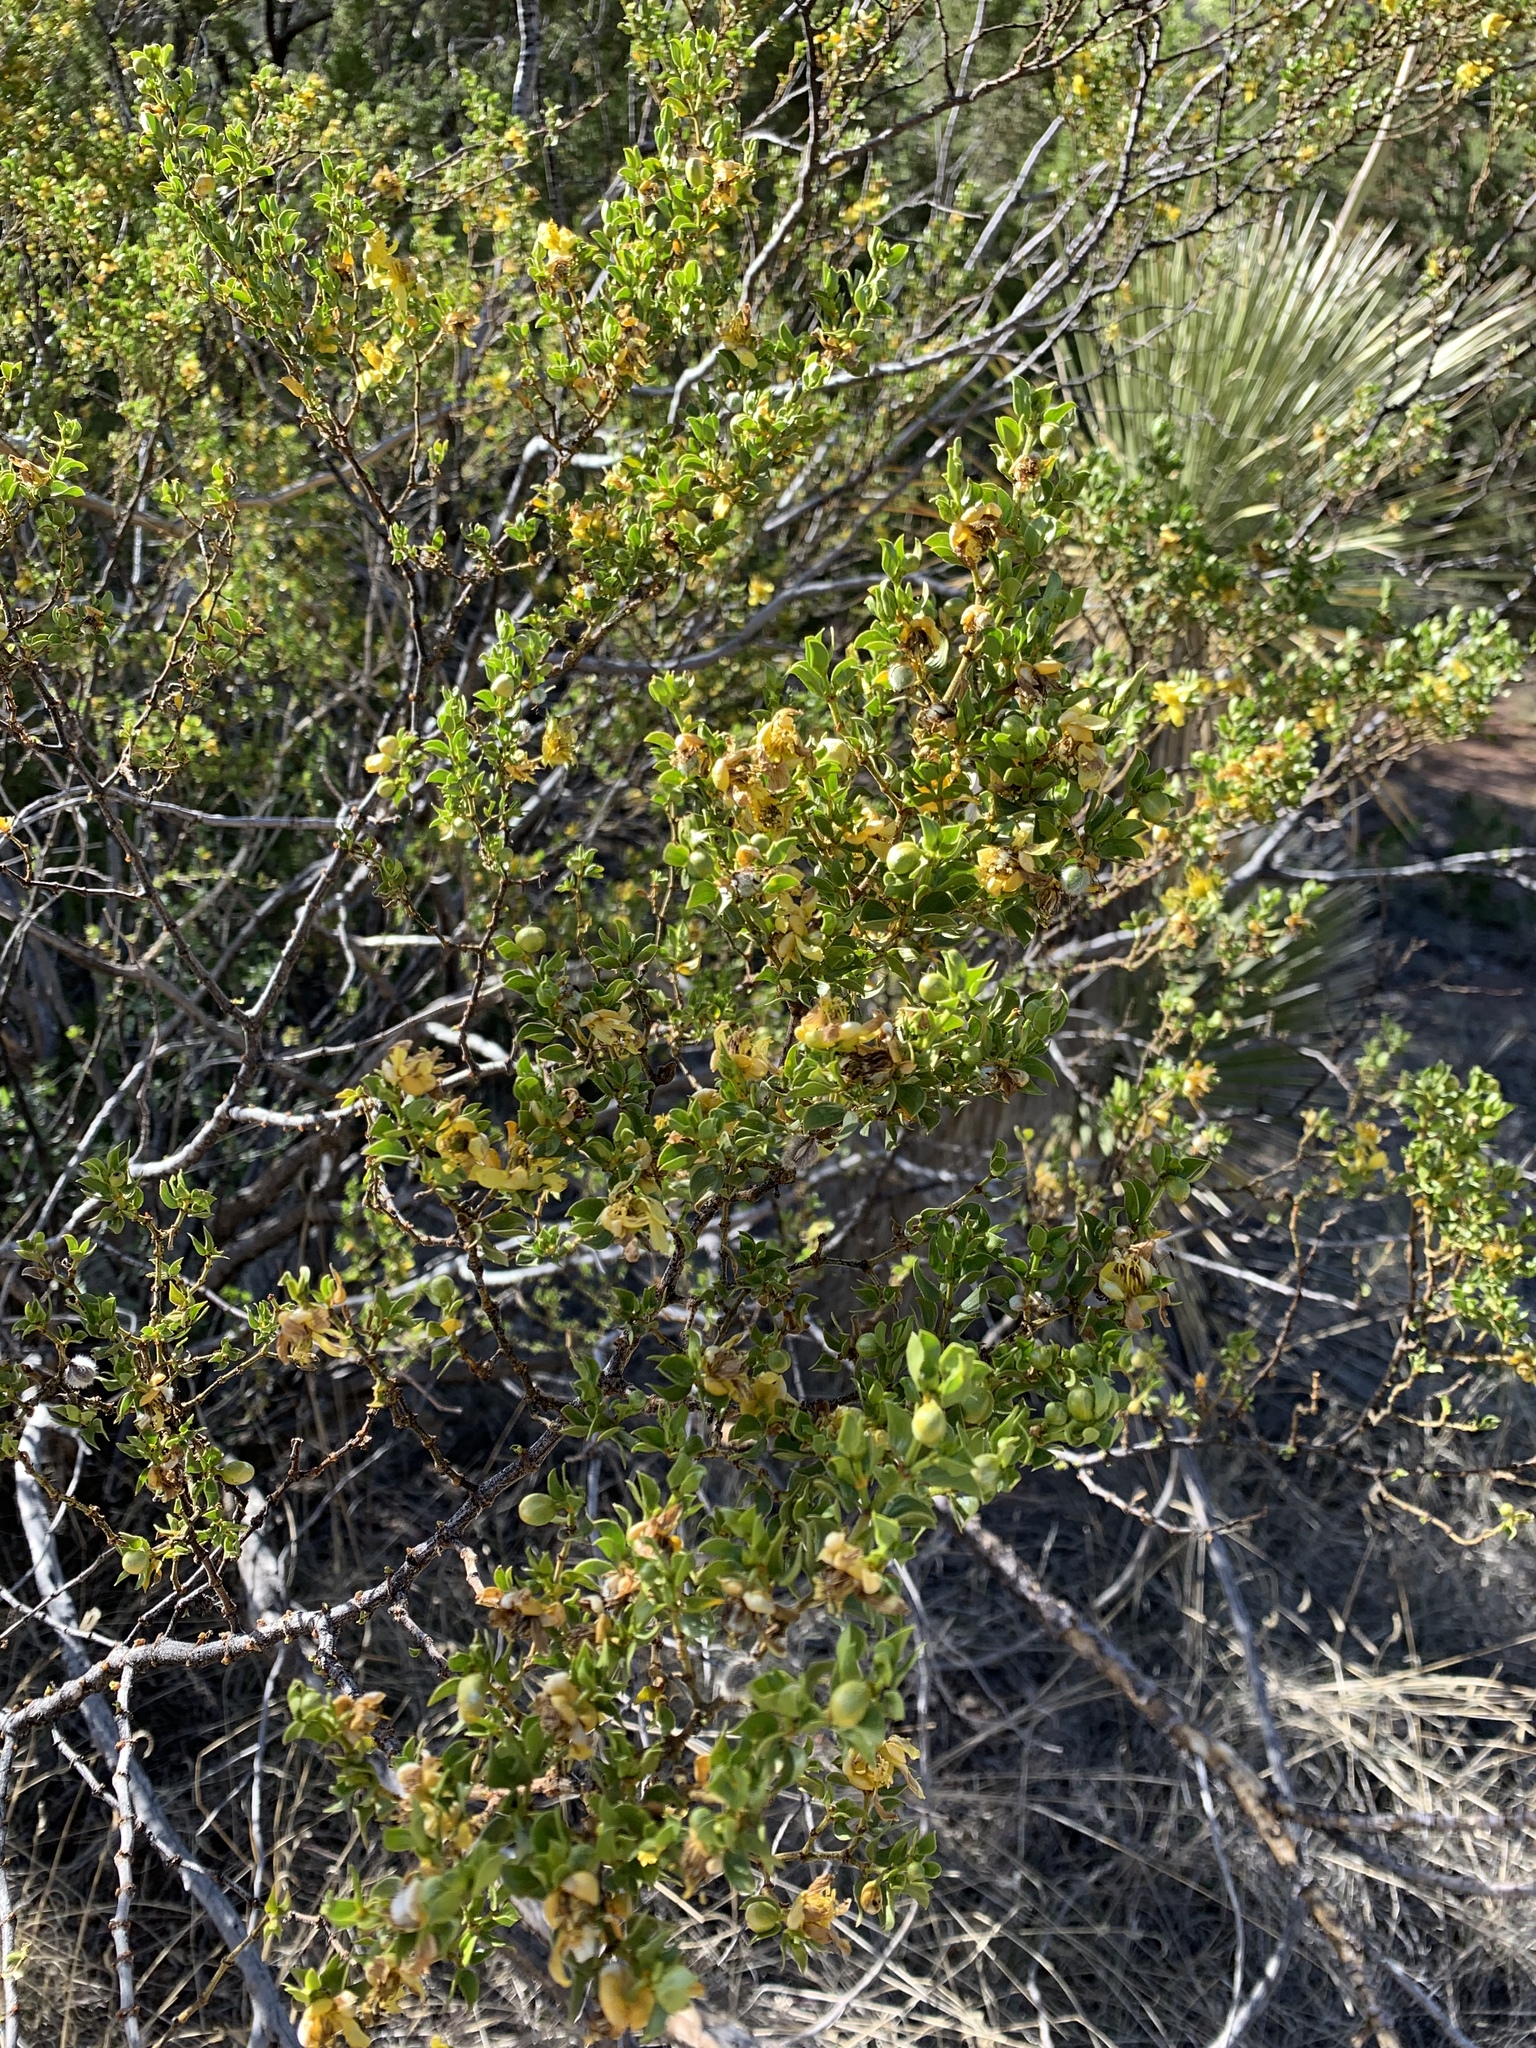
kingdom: Plantae
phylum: Tracheophyta
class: Magnoliopsida
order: Zygophyllales
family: Zygophyllaceae
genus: Larrea
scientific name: Larrea tridentata
